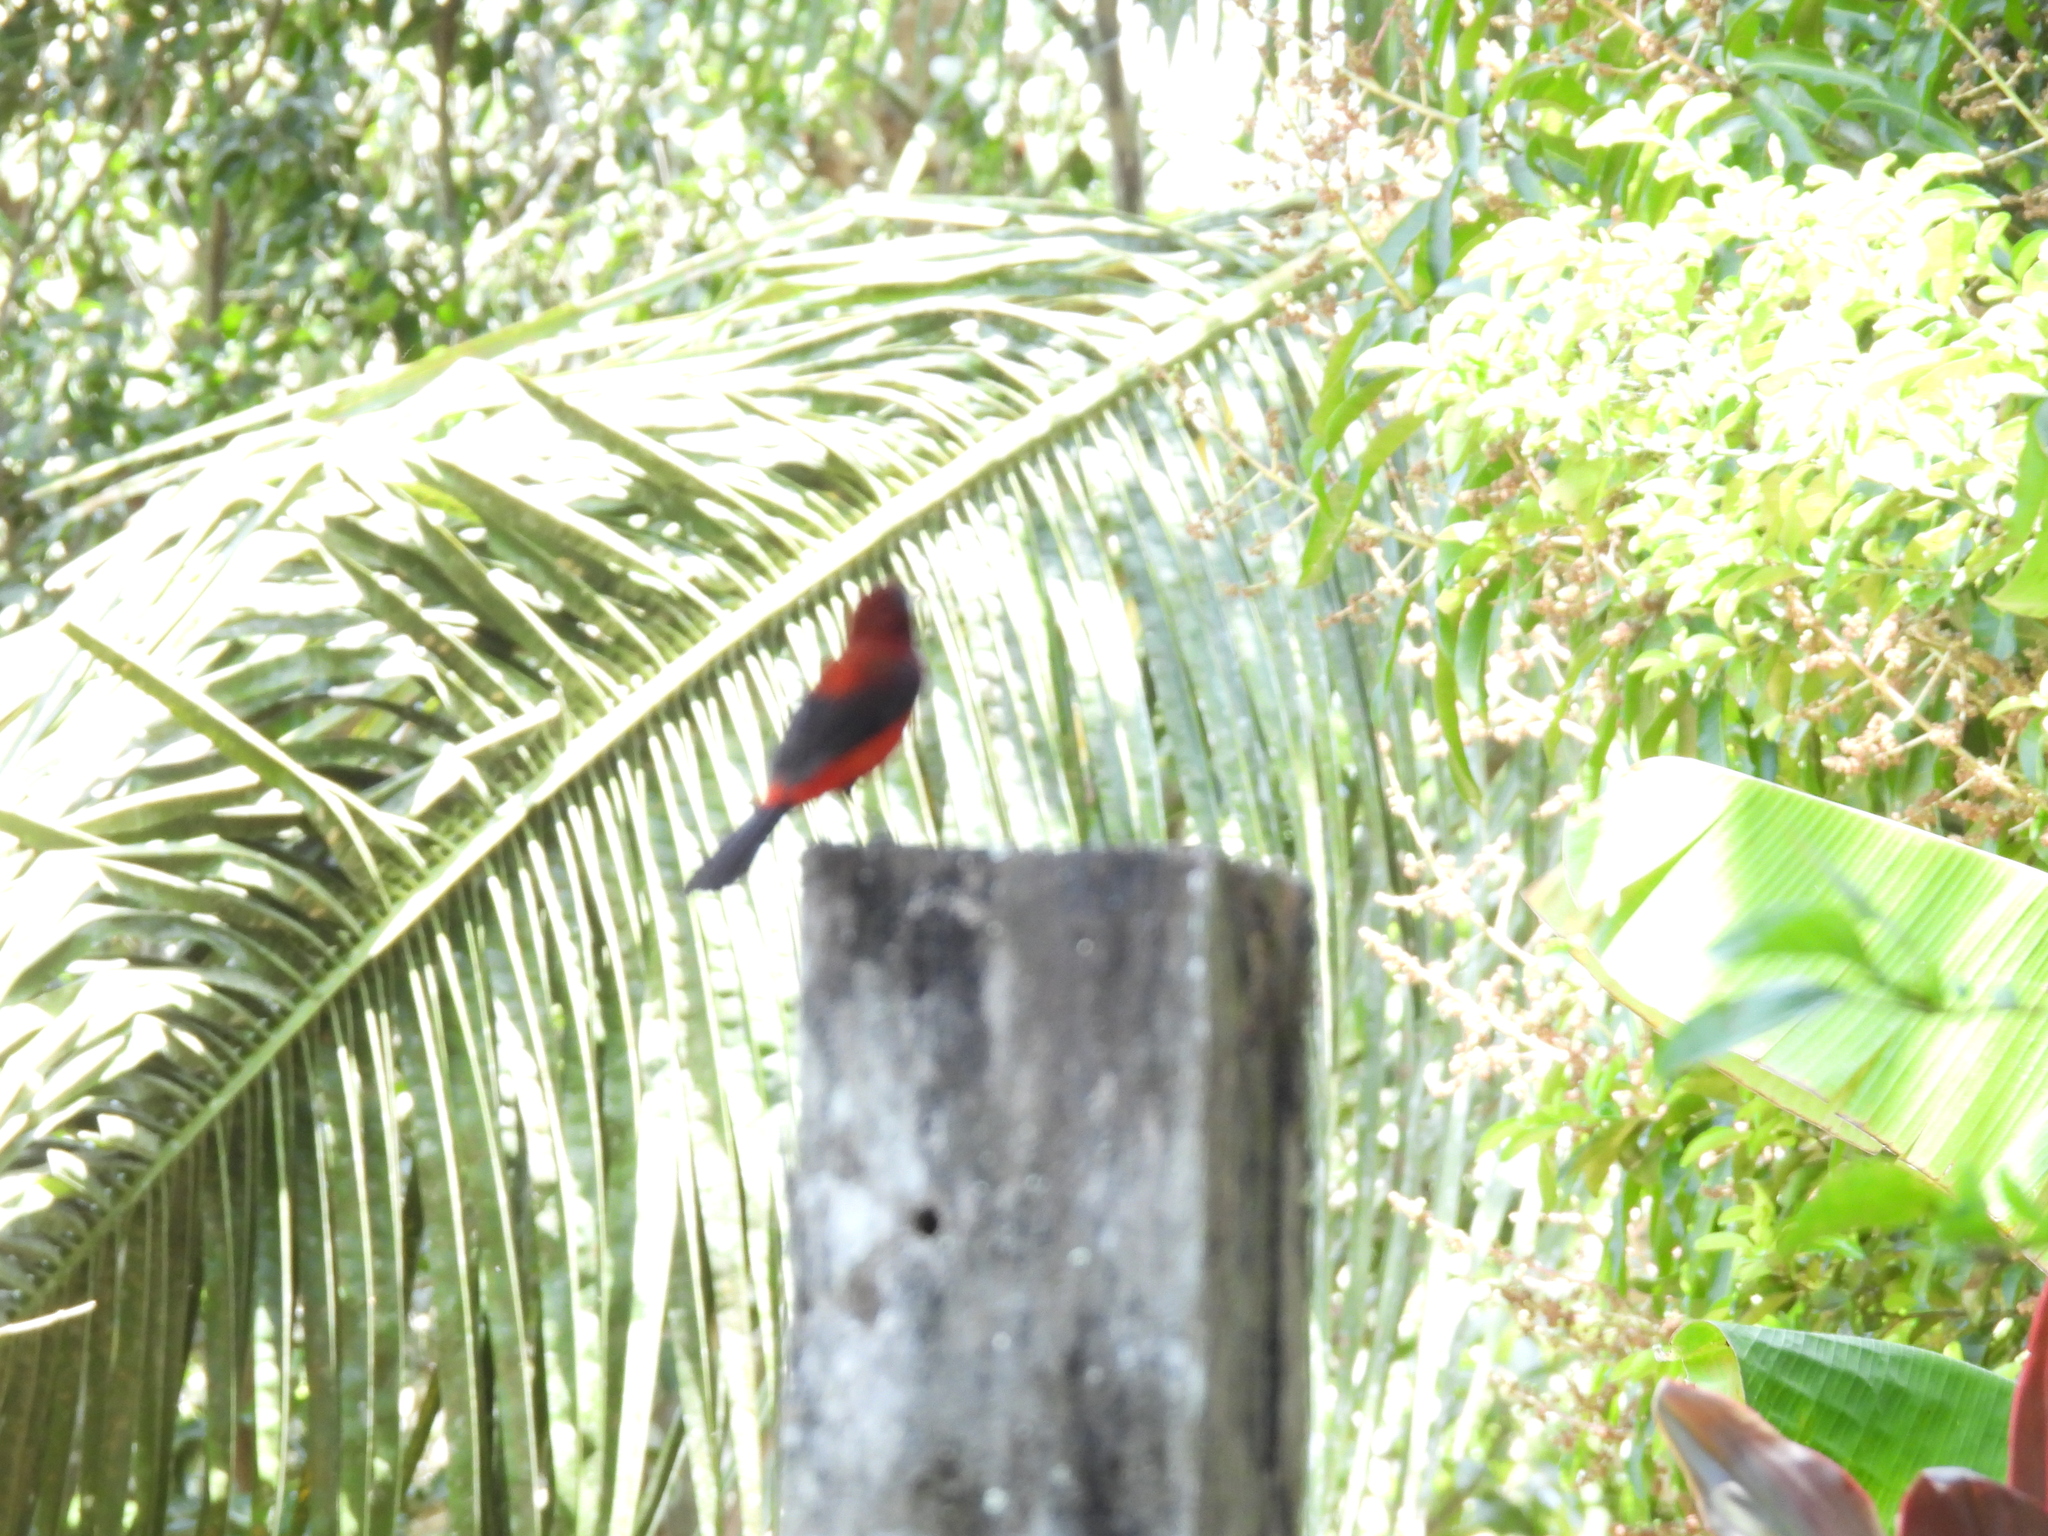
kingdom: Animalia
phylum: Chordata
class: Aves
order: Passeriformes
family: Thraupidae
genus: Ramphocelus
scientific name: Ramphocelus dimidiatus
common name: Crimson-backed tanager
